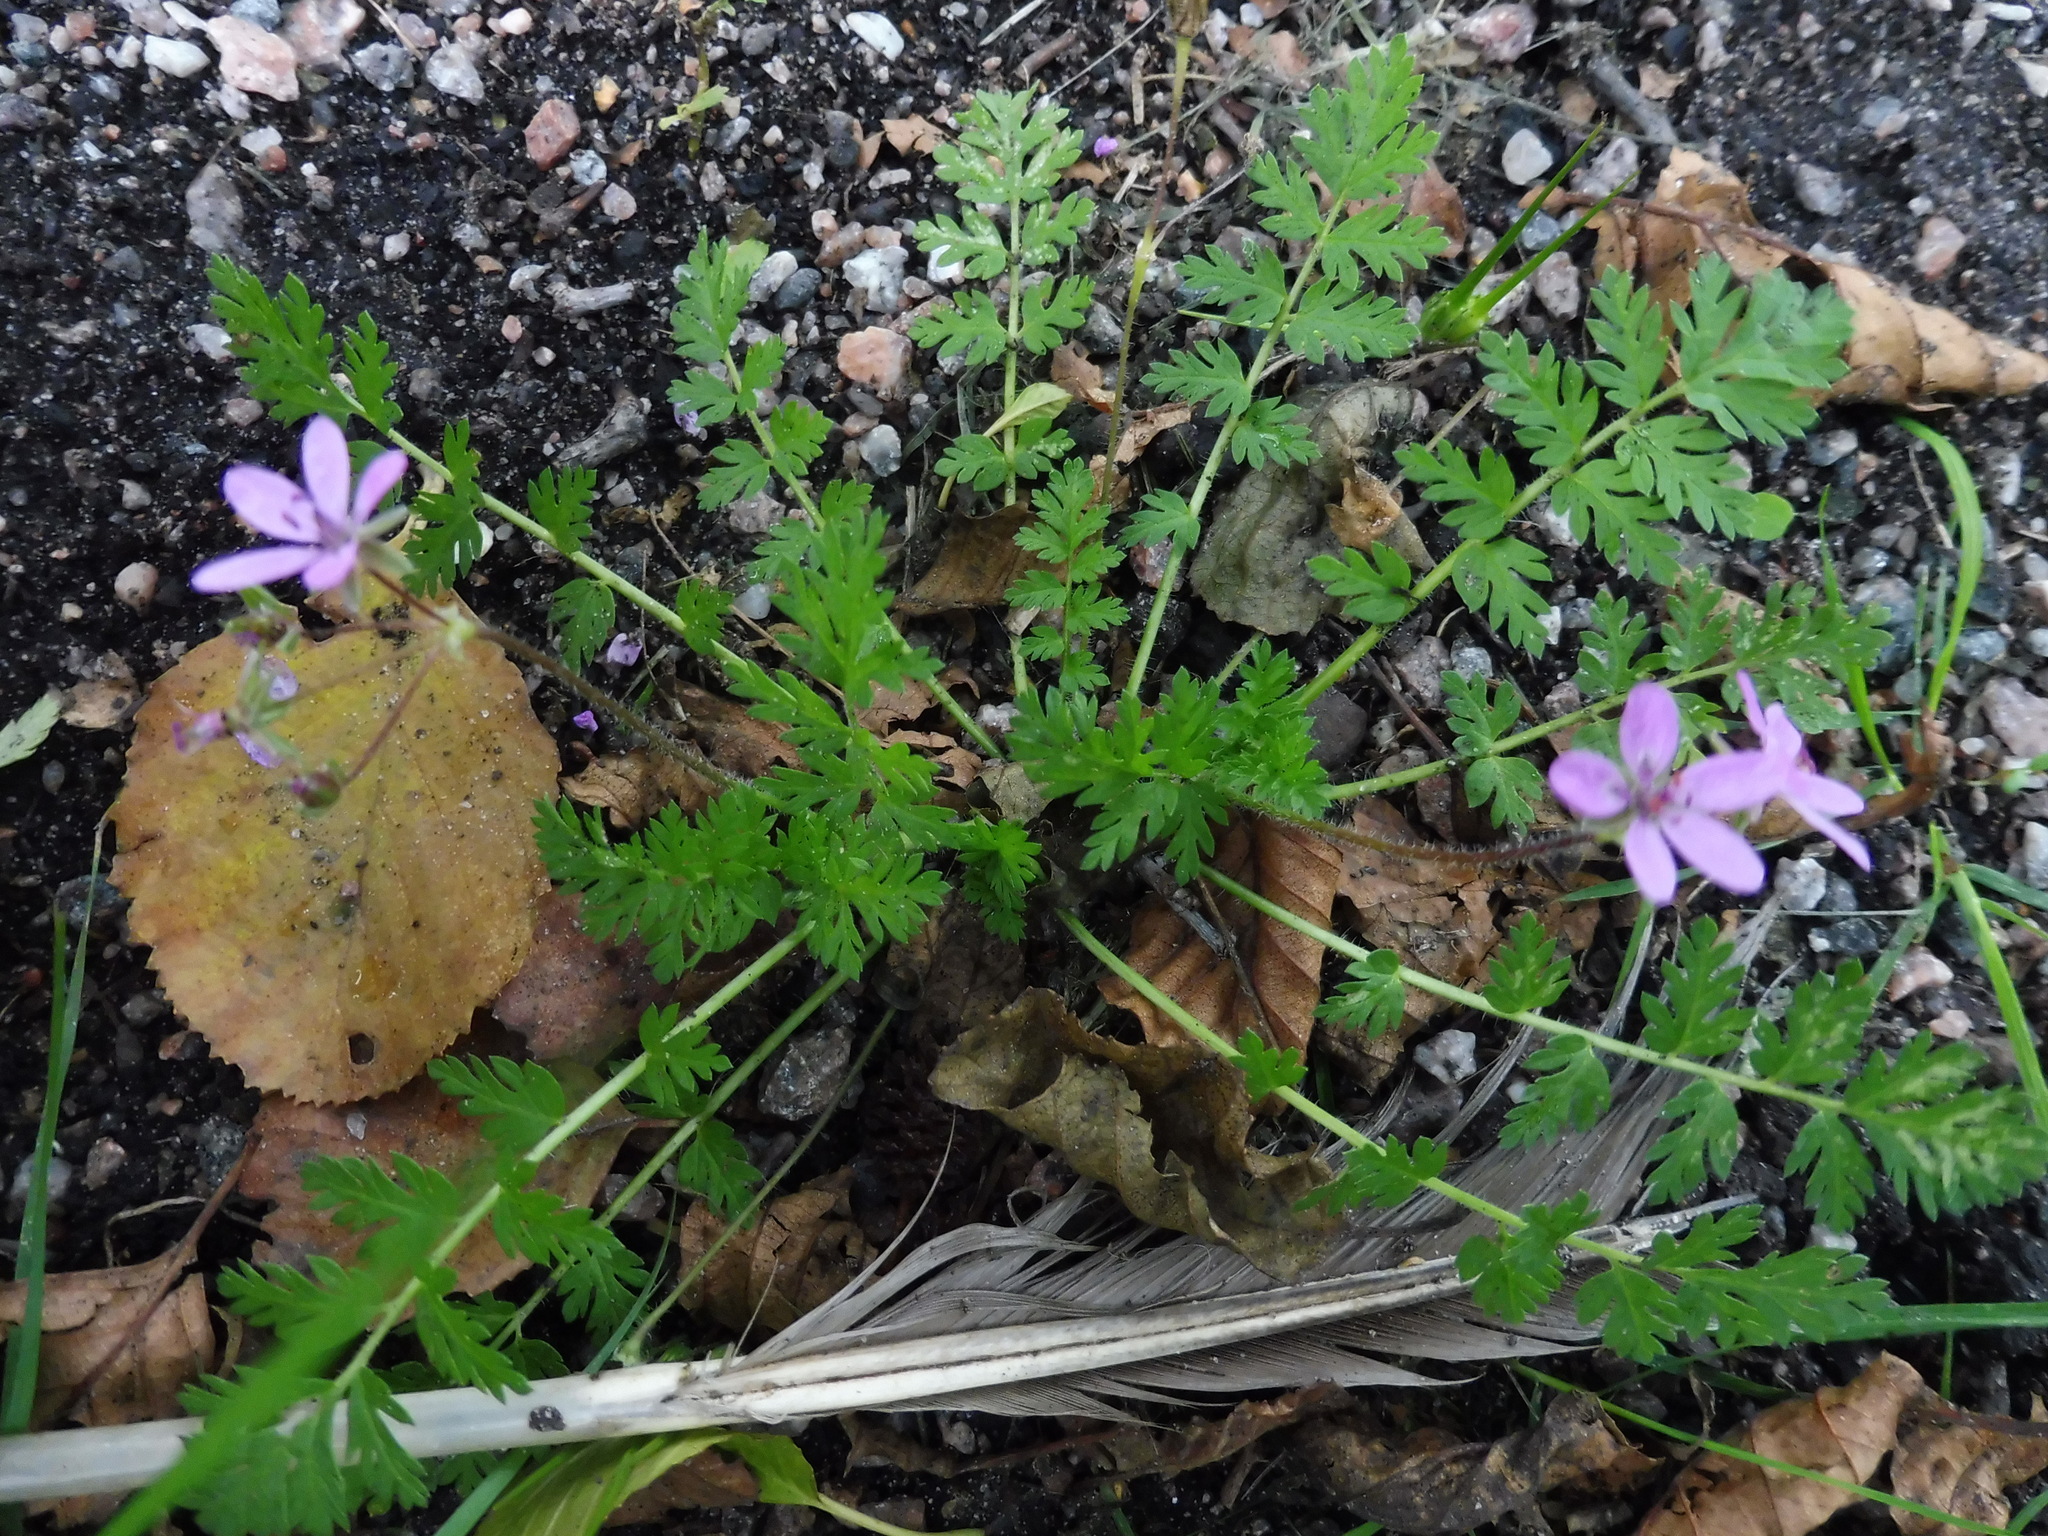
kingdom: Plantae
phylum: Tracheophyta
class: Magnoliopsida
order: Geraniales
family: Geraniaceae
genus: Erodium
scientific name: Erodium cicutarium
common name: Common stork's-bill
